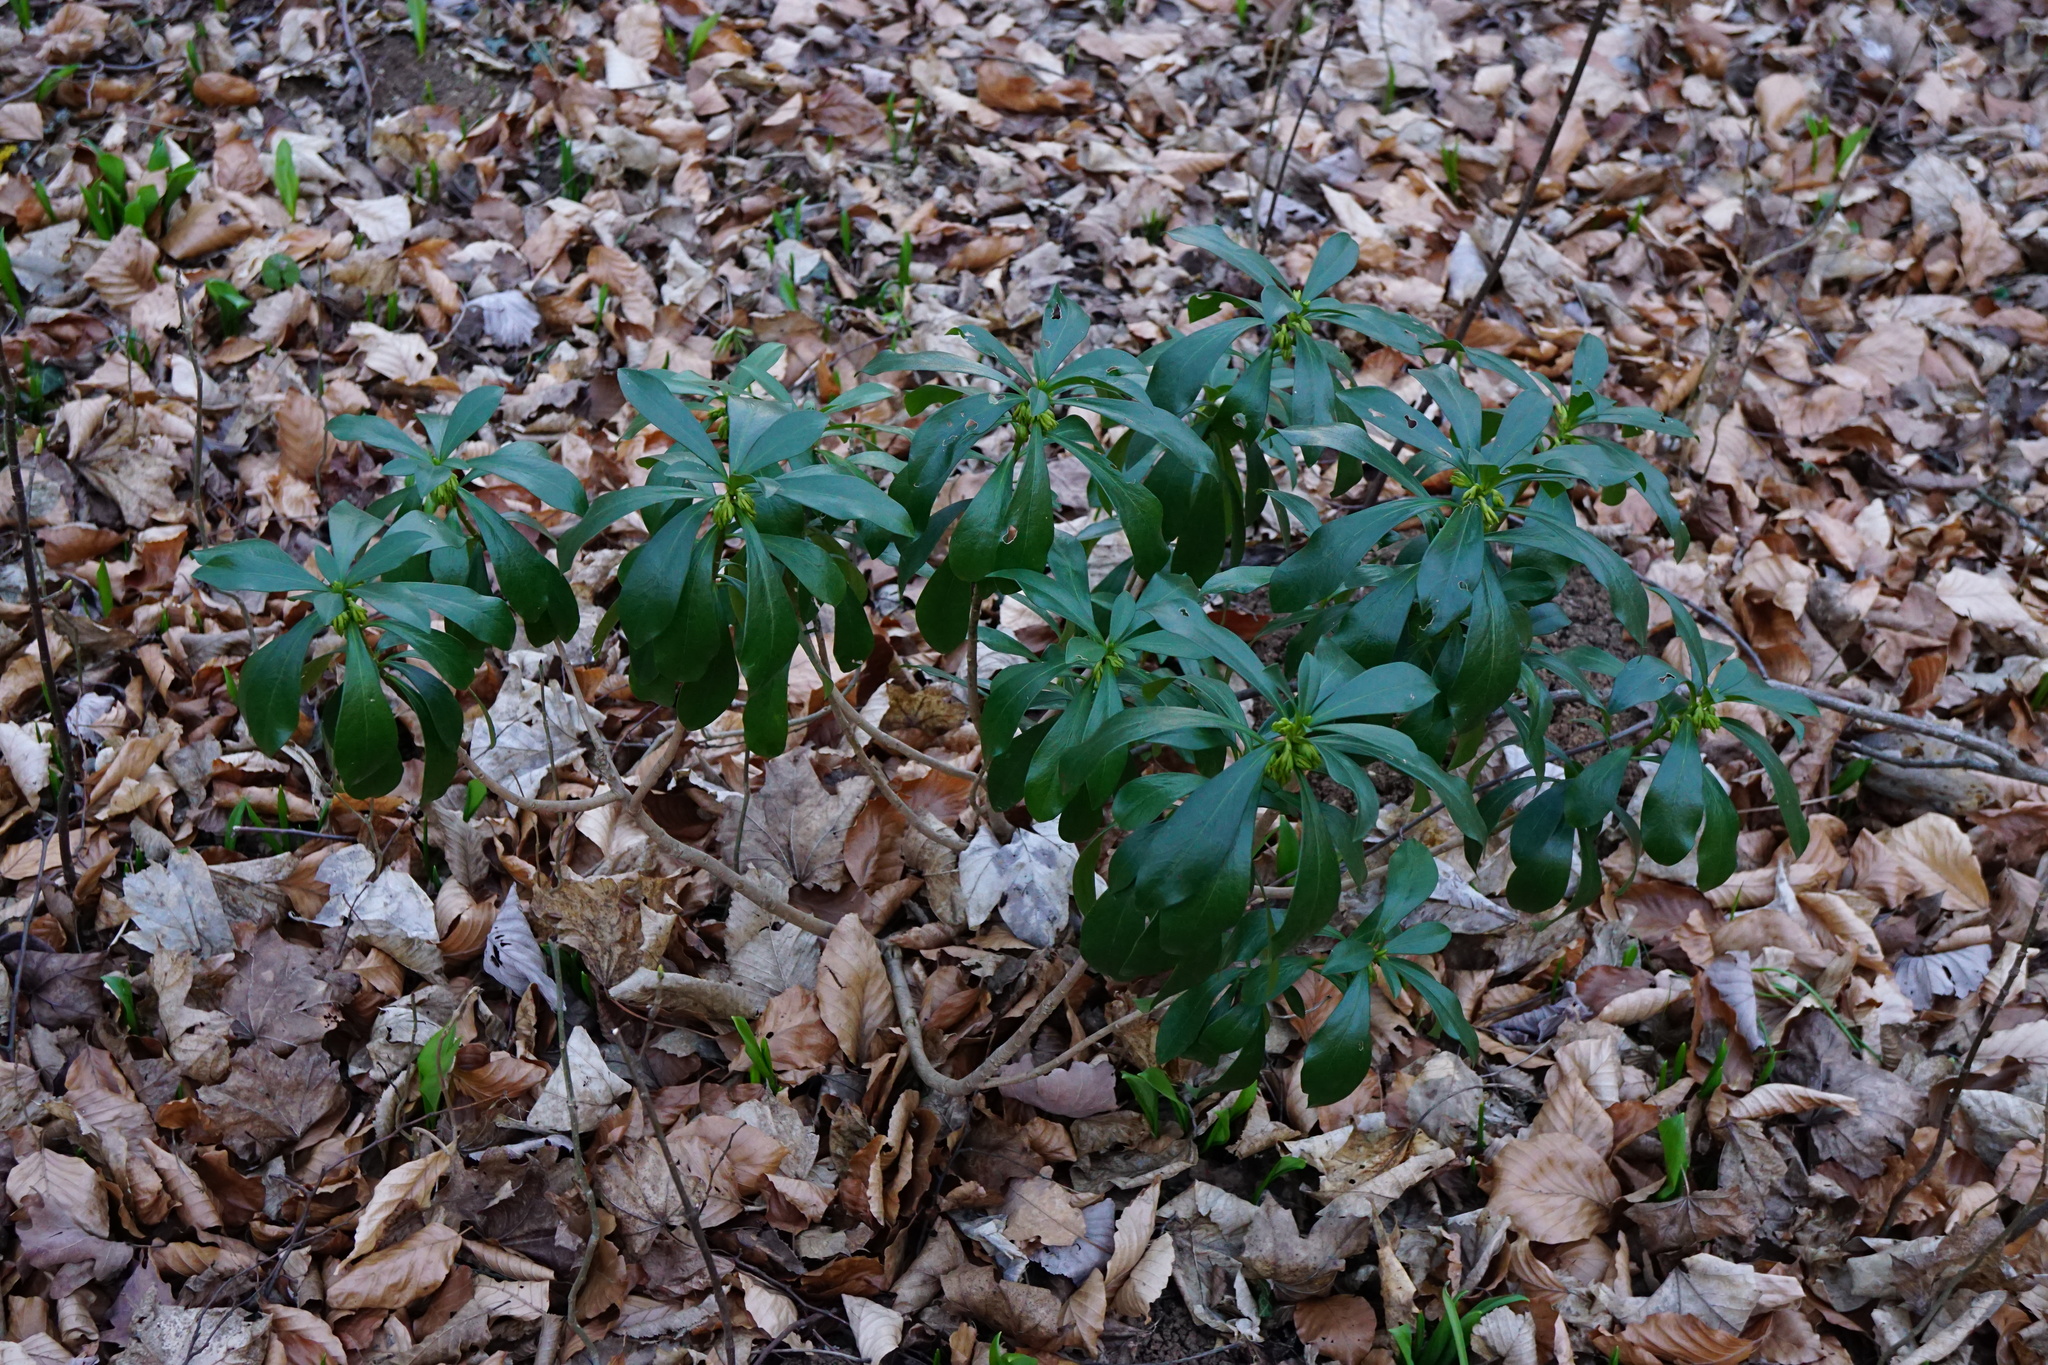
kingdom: Plantae
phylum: Tracheophyta
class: Magnoliopsida
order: Malvales
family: Thymelaeaceae
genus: Daphne
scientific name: Daphne laureola
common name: Spurge-laurel
